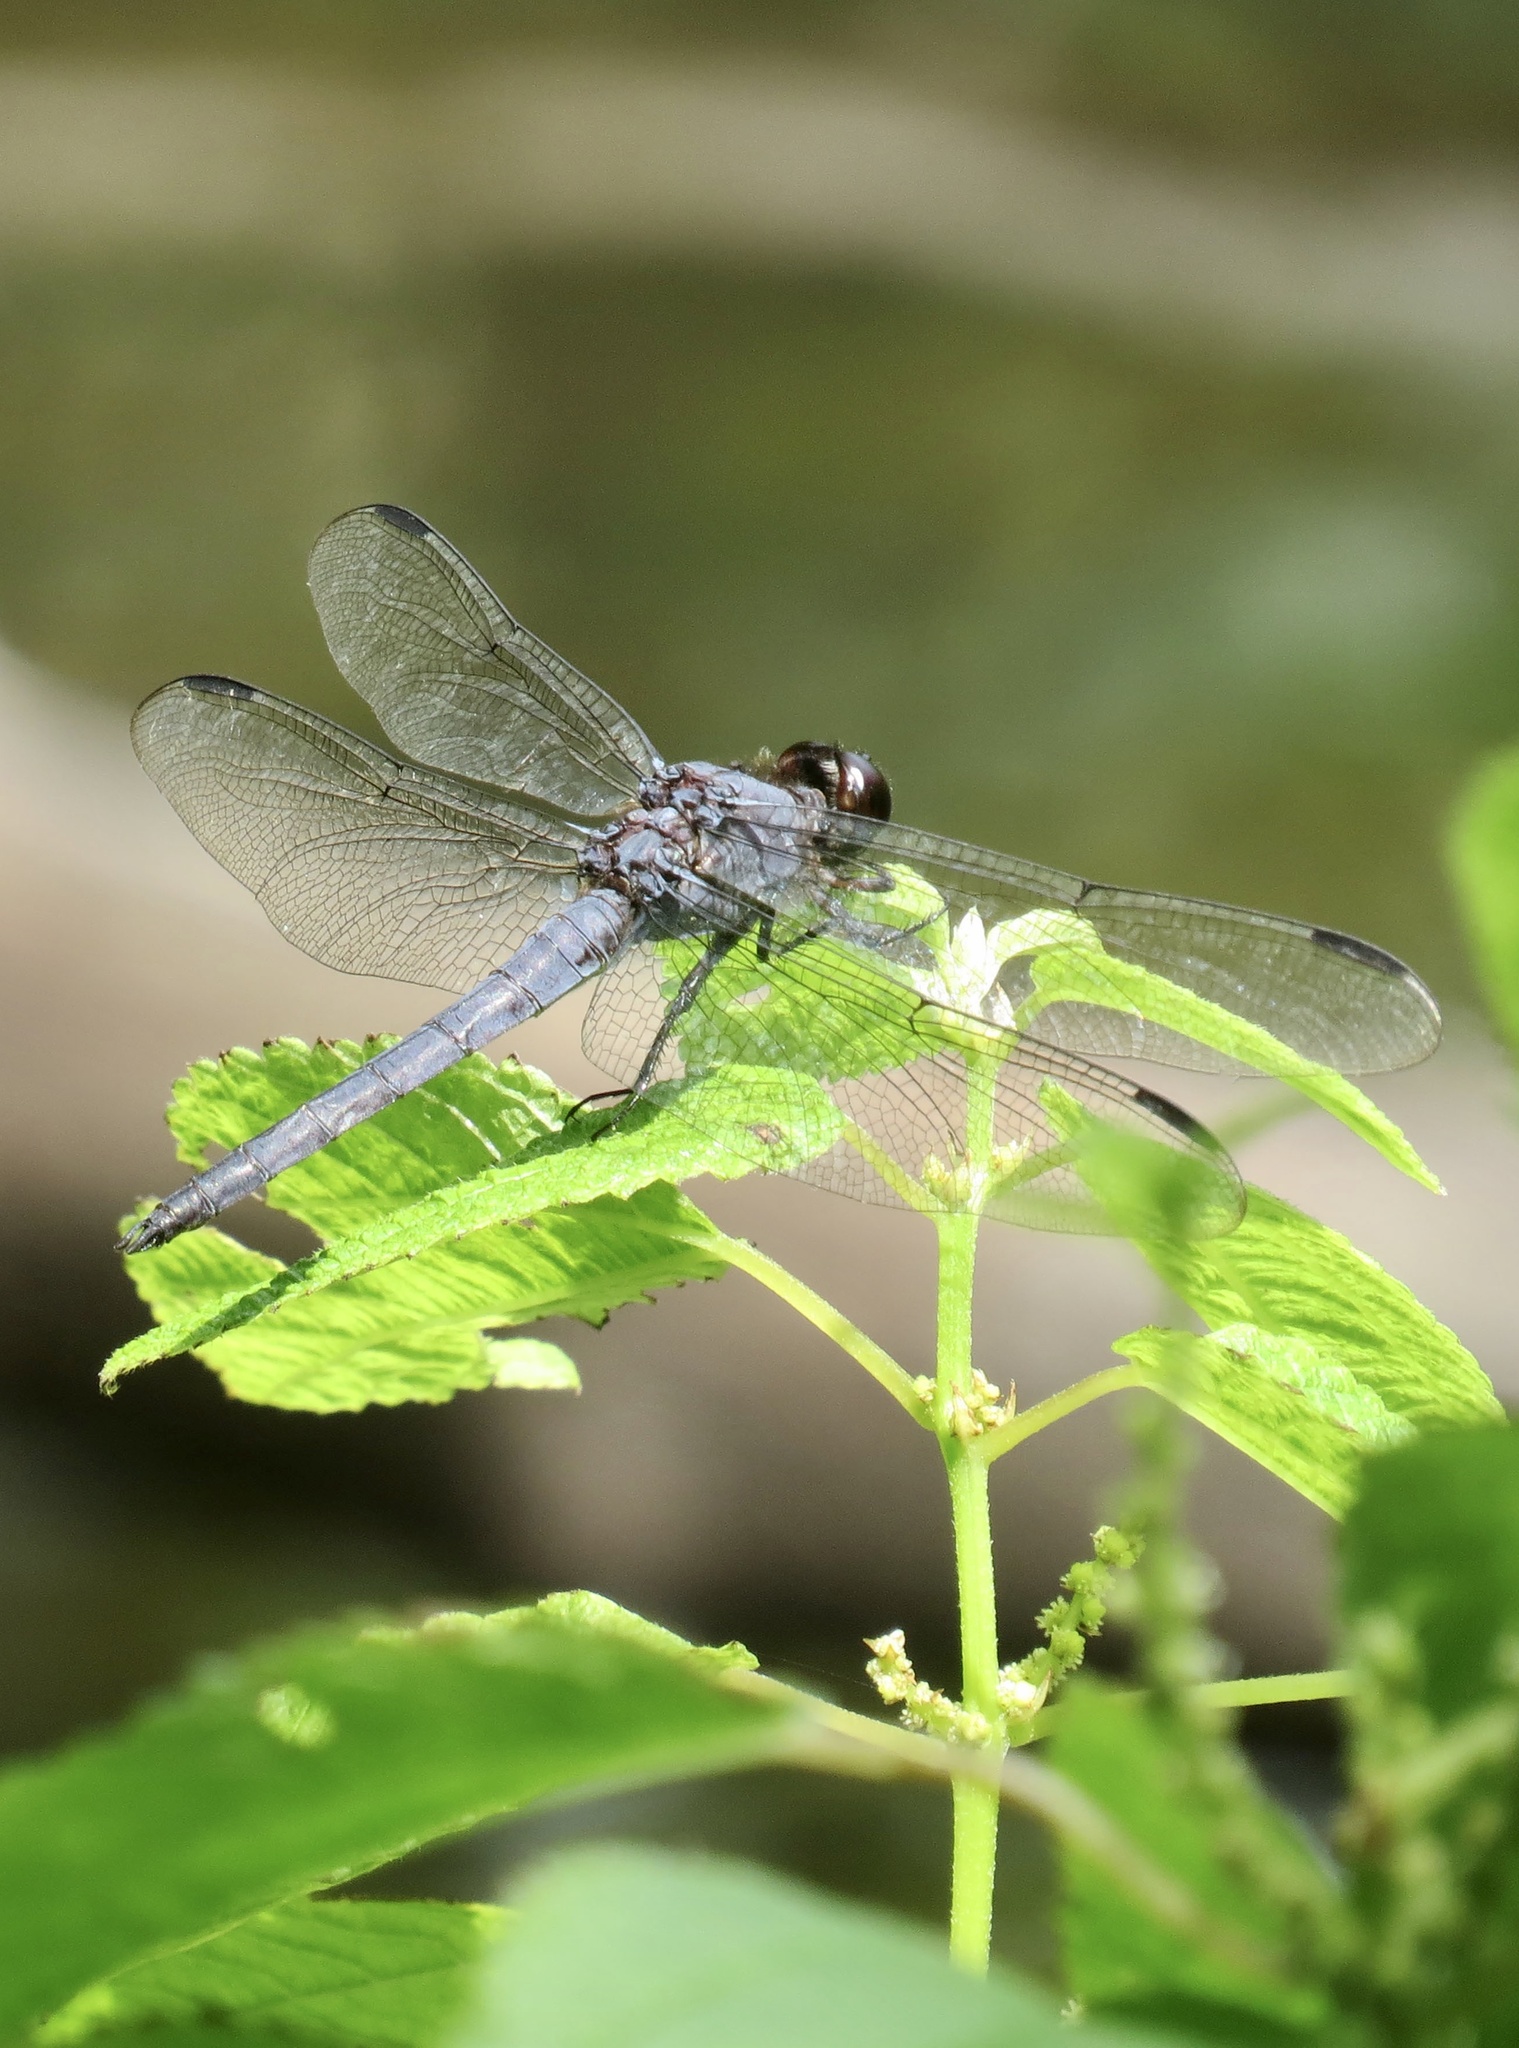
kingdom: Animalia
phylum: Arthropoda
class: Insecta
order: Odonata
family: Libellulidae
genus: Libellula
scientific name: Libellula incesta
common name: Slaty skimmer
